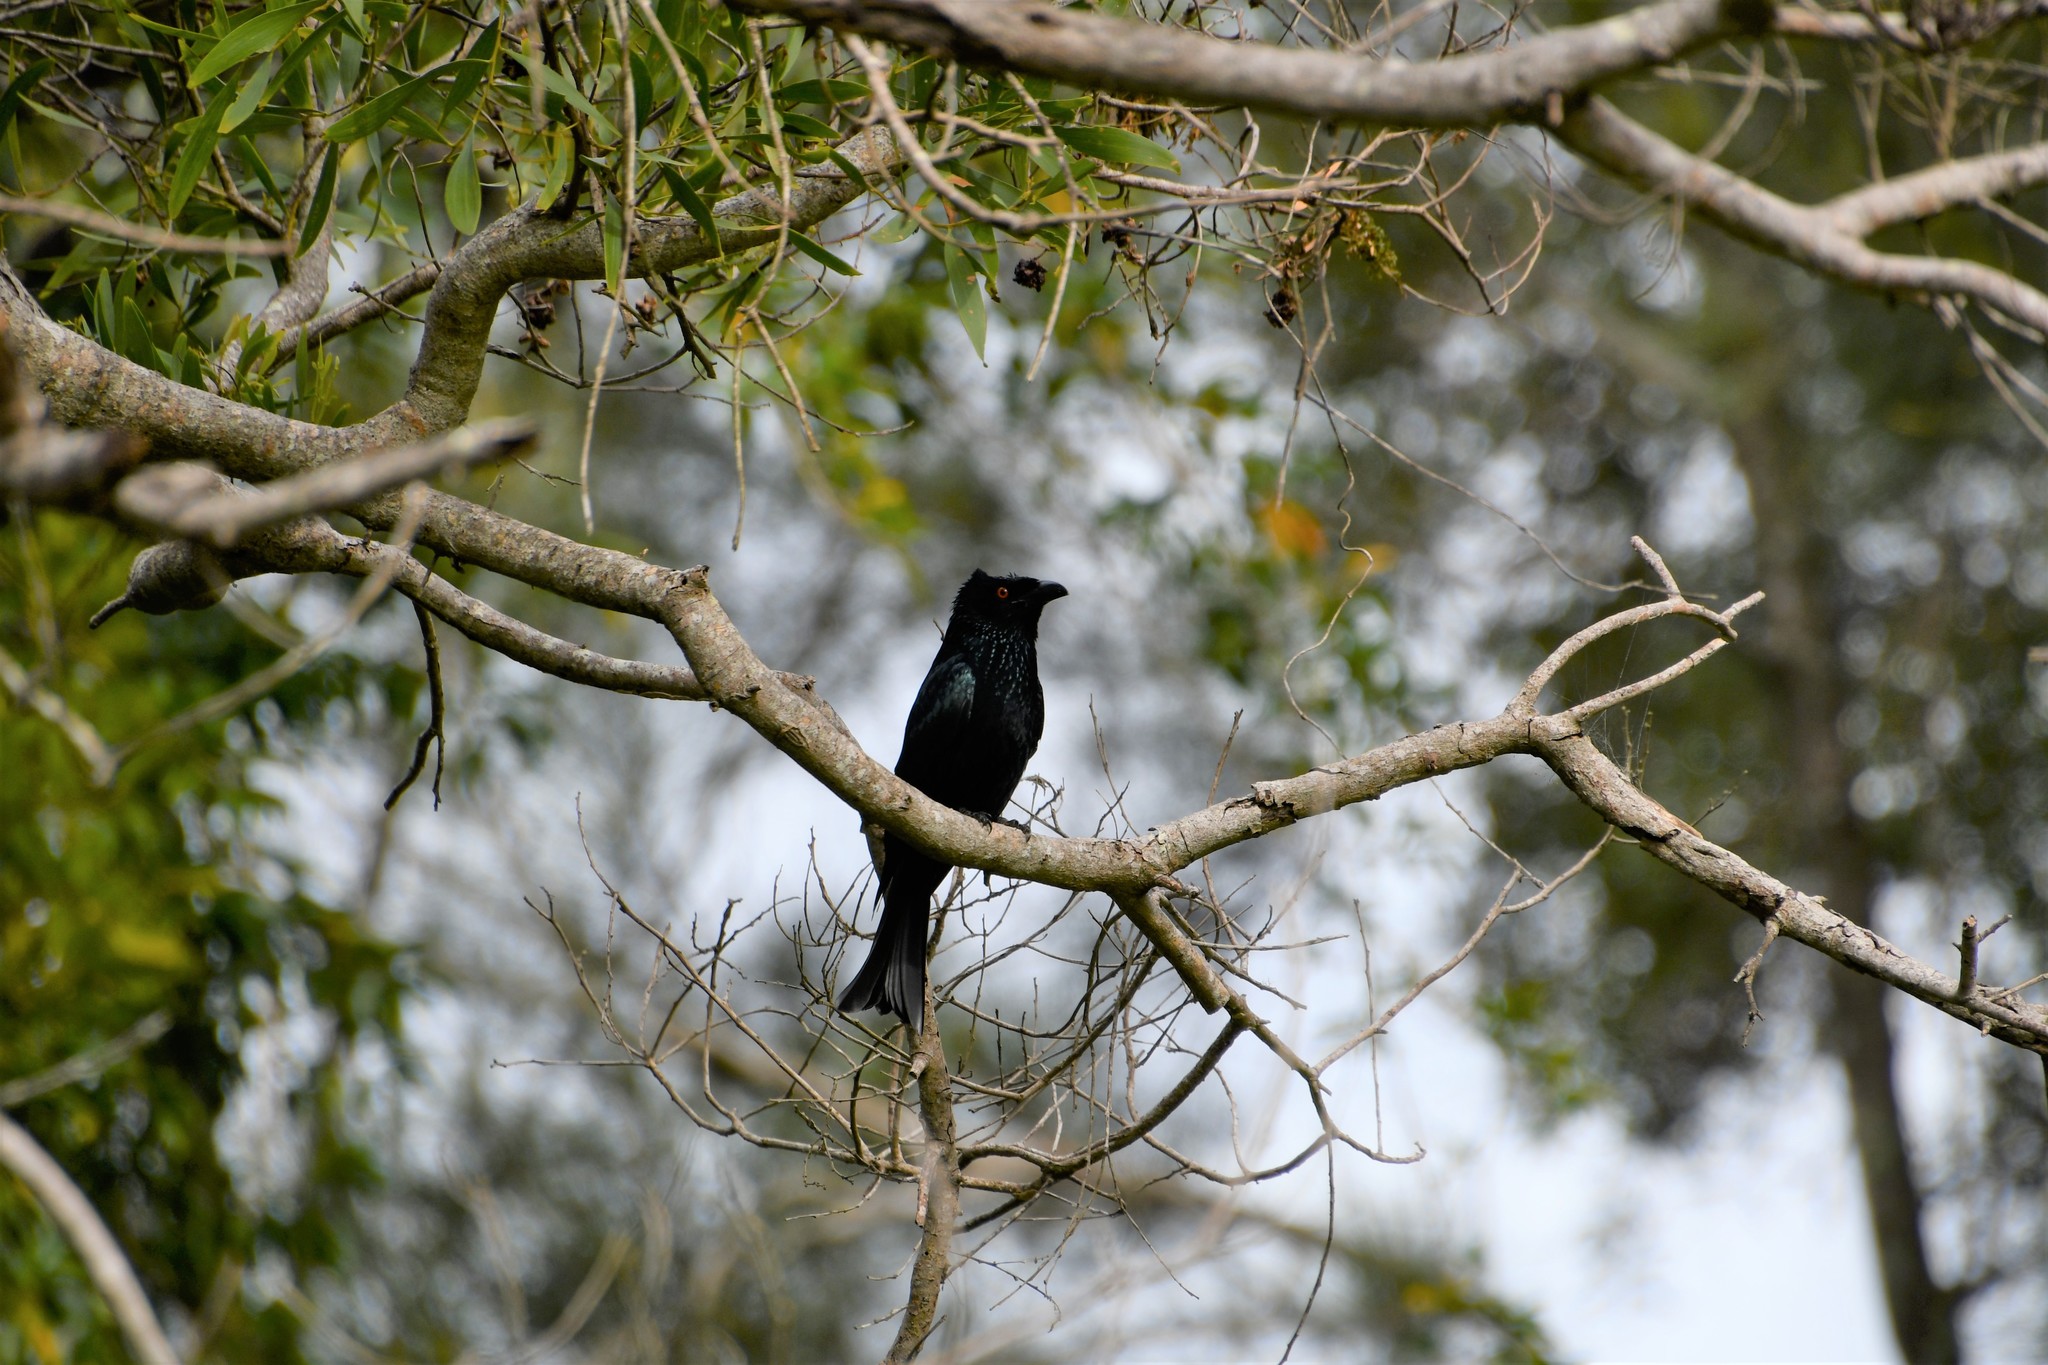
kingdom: Animalia
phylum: Chordata
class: Aves
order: Passeriformes
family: Dicruridae
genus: Dicrurus
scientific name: Dicrurus bracteatus
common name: Spangled drongo
